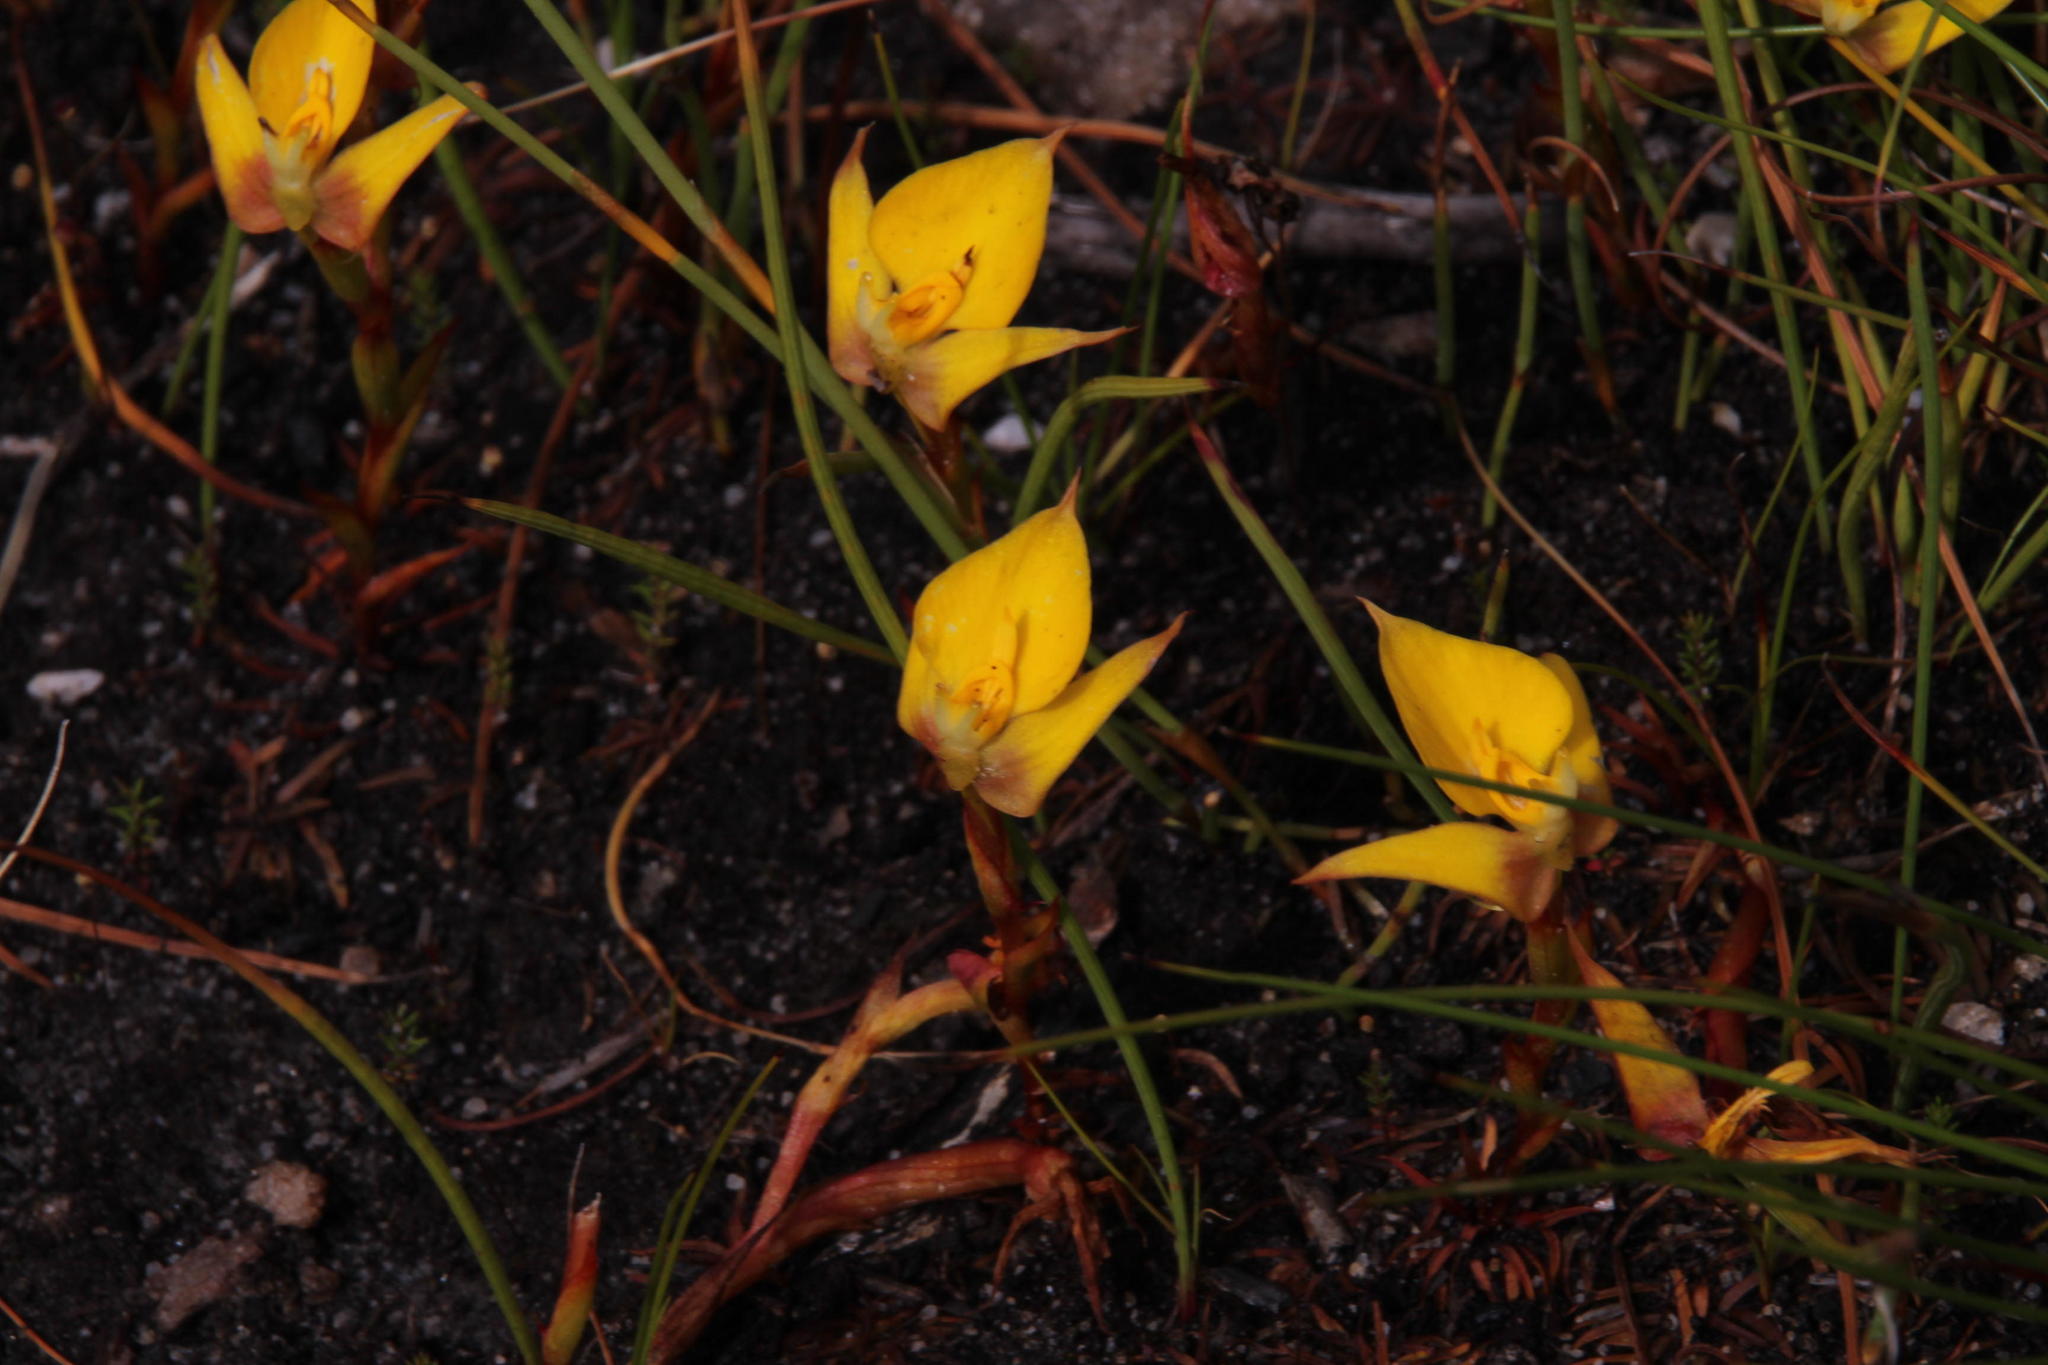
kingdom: Plantae
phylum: Tracheophyta
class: Liliopsida
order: Asparagales
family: Orchidaceae
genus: Disa
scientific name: Disa tenuifolia
